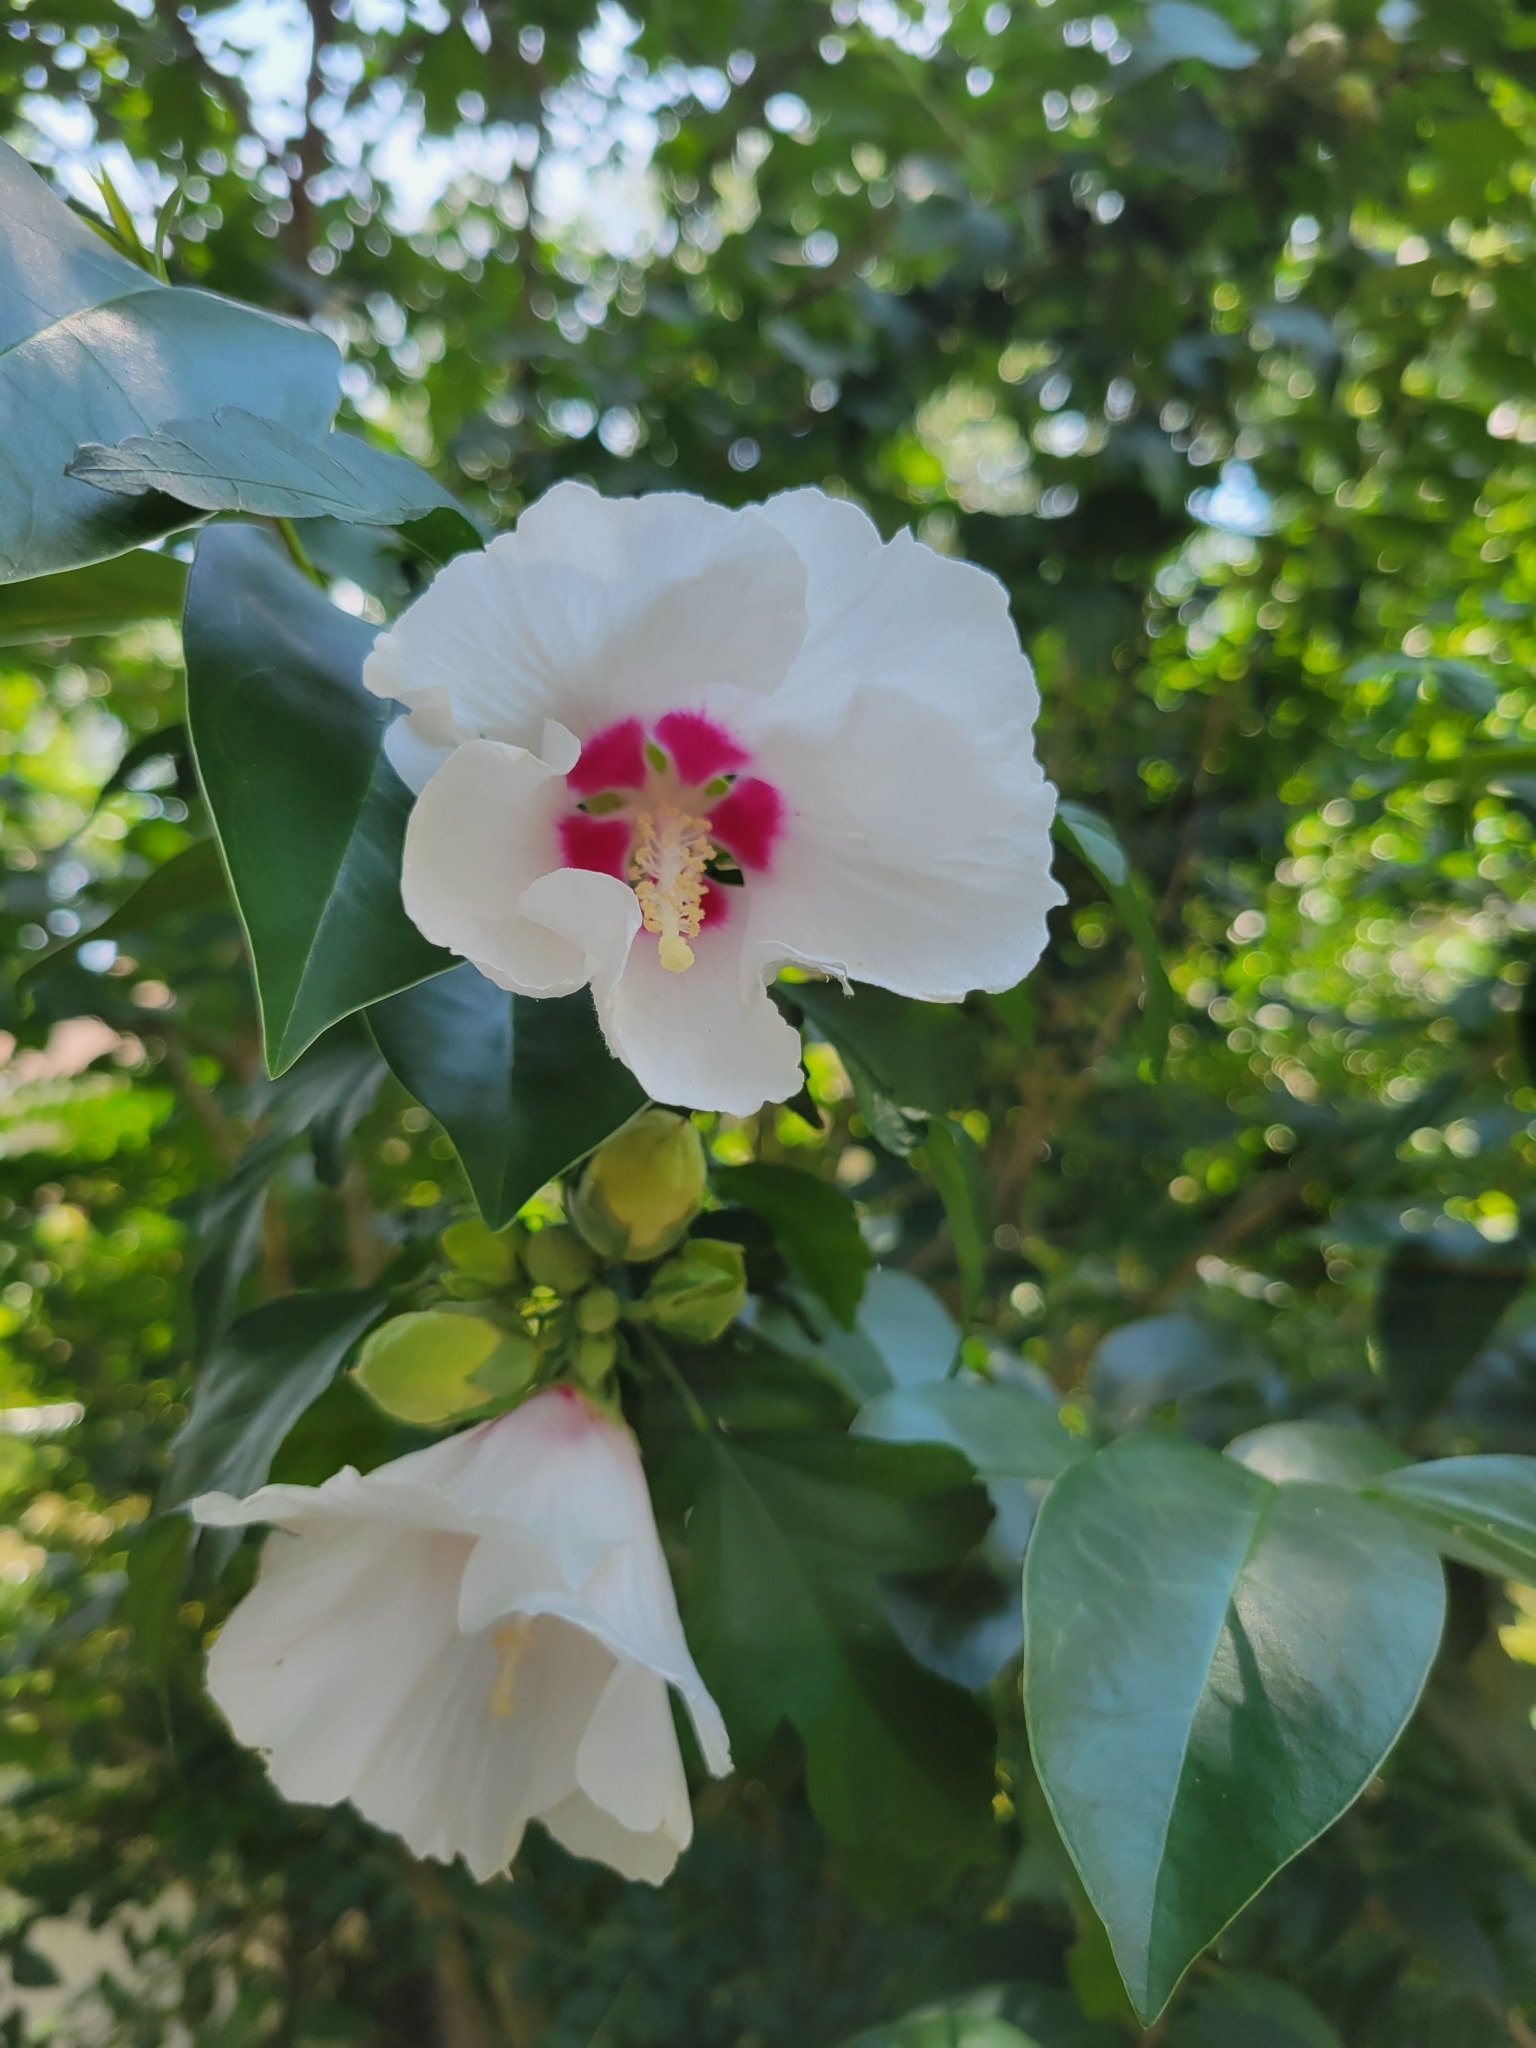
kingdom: Plantae
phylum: Tracheophyta
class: Magnoliopsida
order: Malvales
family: Malvaceae
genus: Hibiscus
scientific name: Hibiscus syriacus
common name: Syrian ketmia
